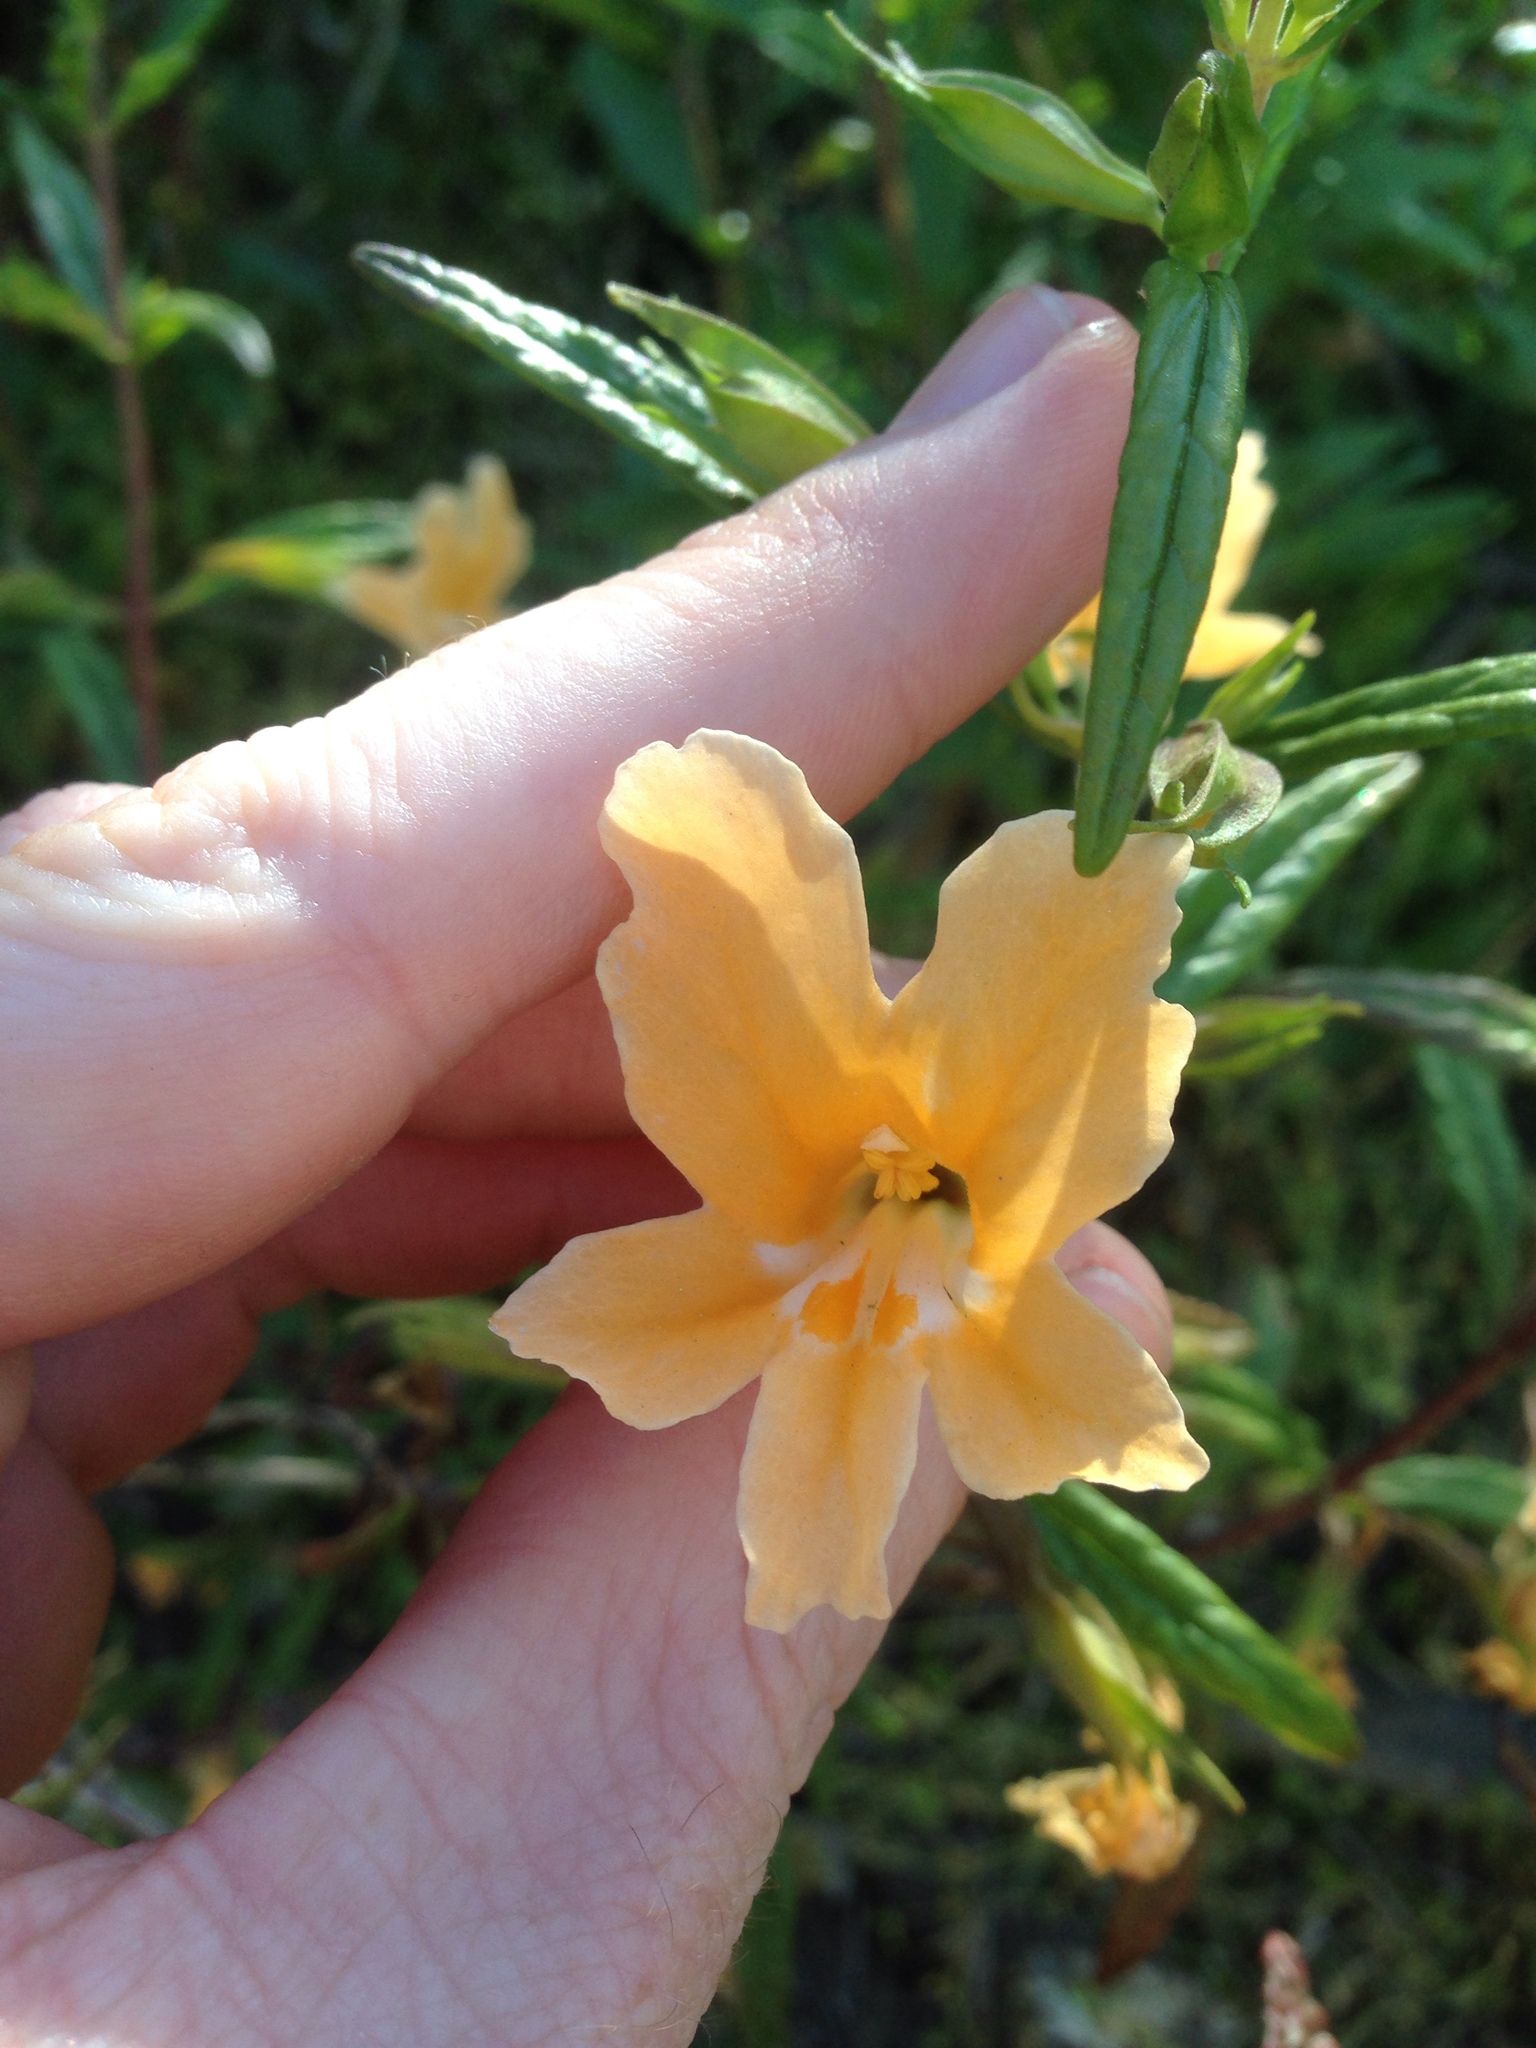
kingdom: Plantae
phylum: Tracheophyta
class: Magnoliopsida
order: Lamiales
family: Phrymaceae
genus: Diplacus
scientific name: Diplacus longiflorus
